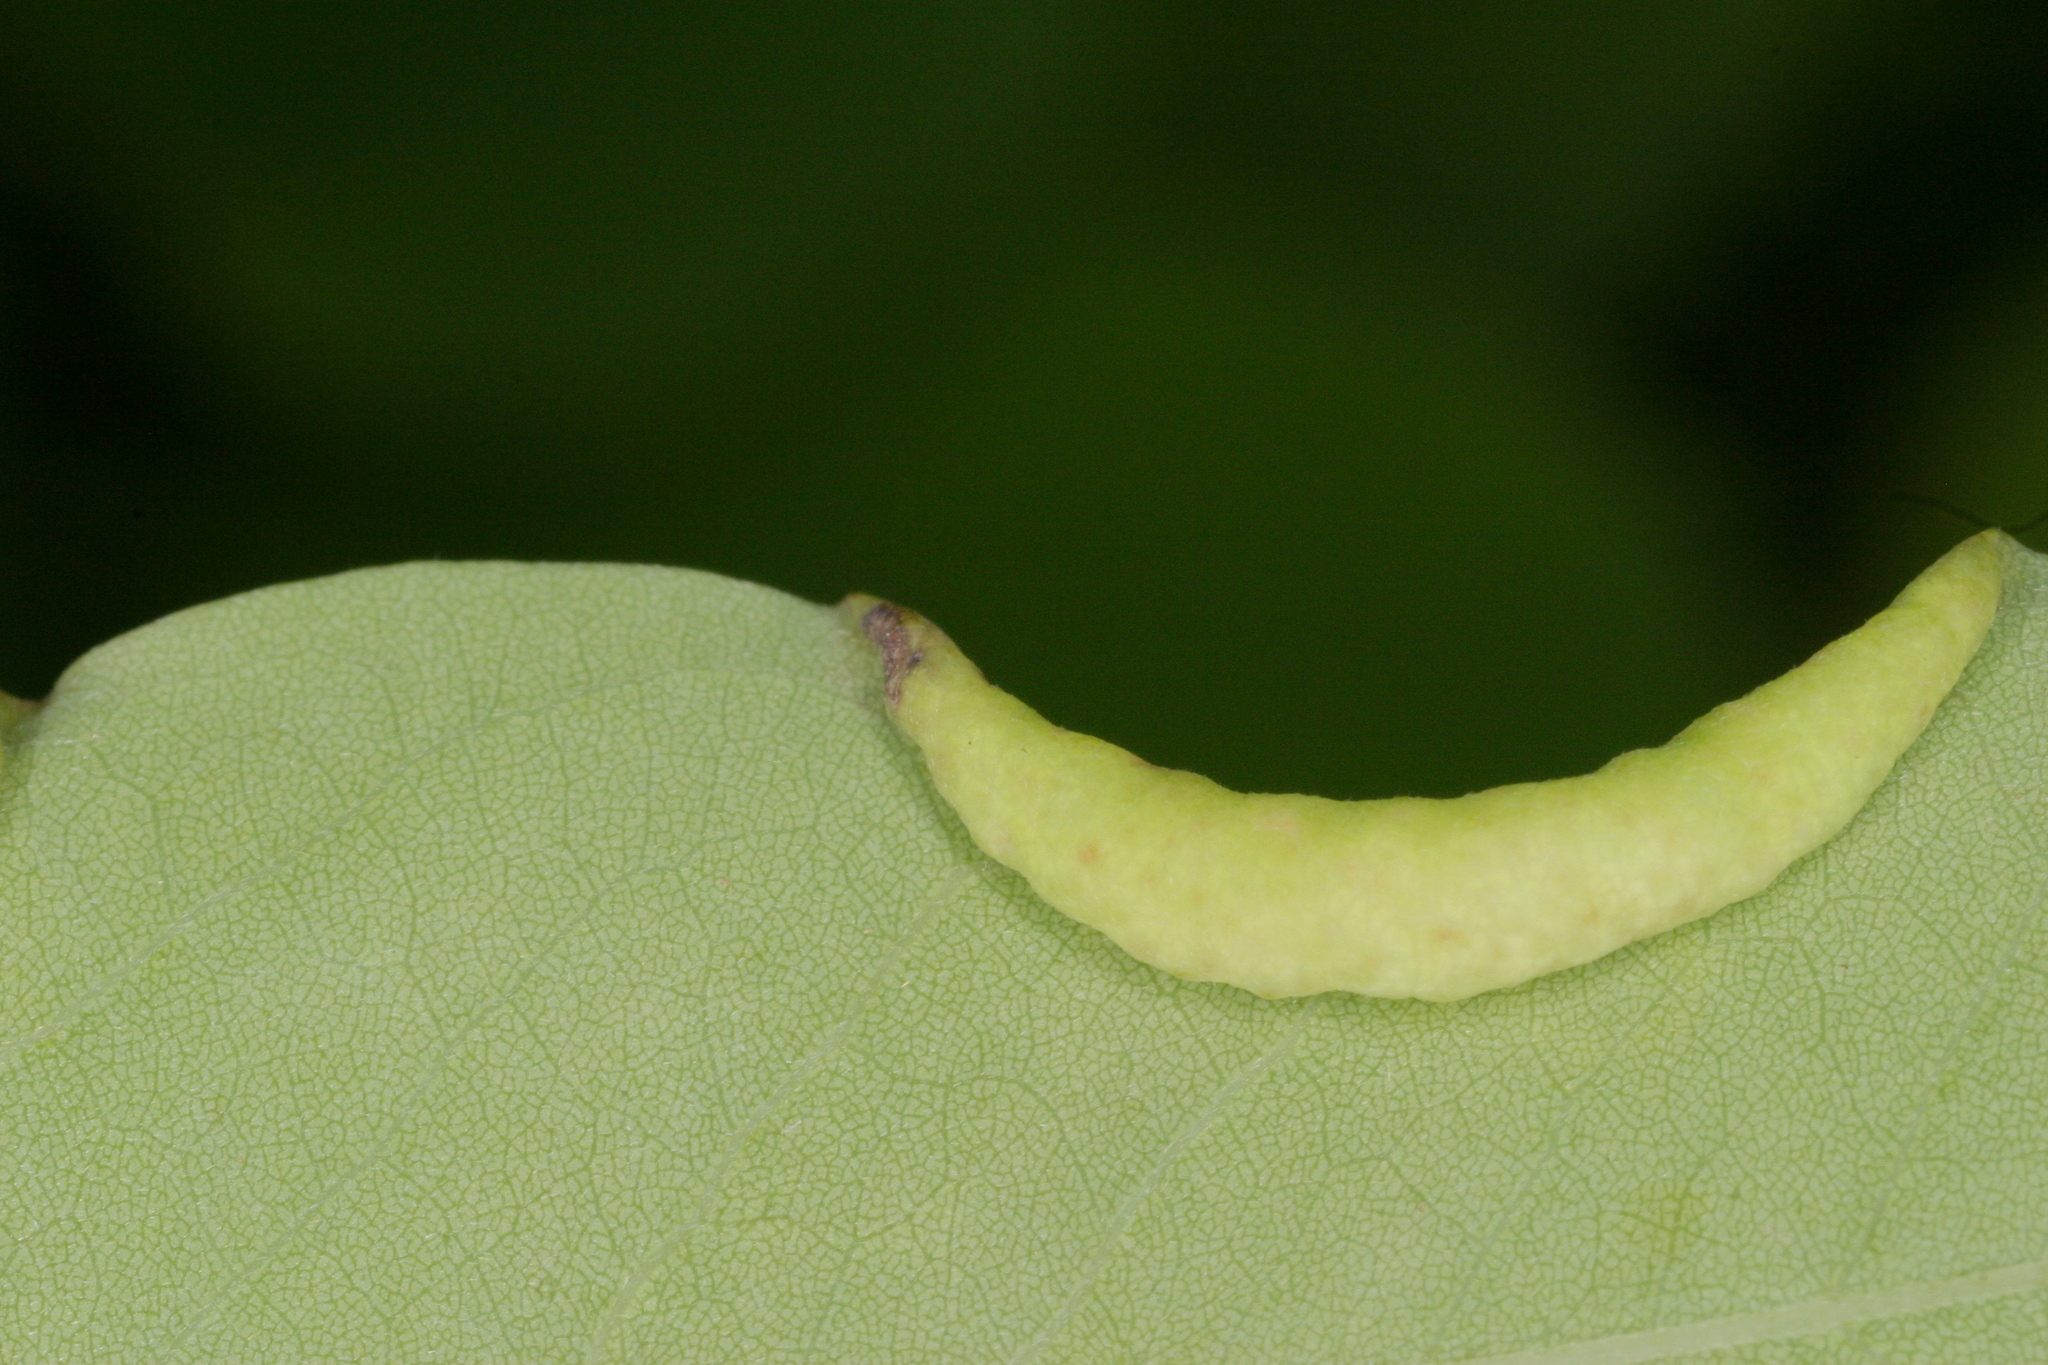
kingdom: Animalia
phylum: Arthropoda
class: Insecta
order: Diptera
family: Cecidomyiidae
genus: Obolodiplosis
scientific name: Obolodiplosis robiniae
